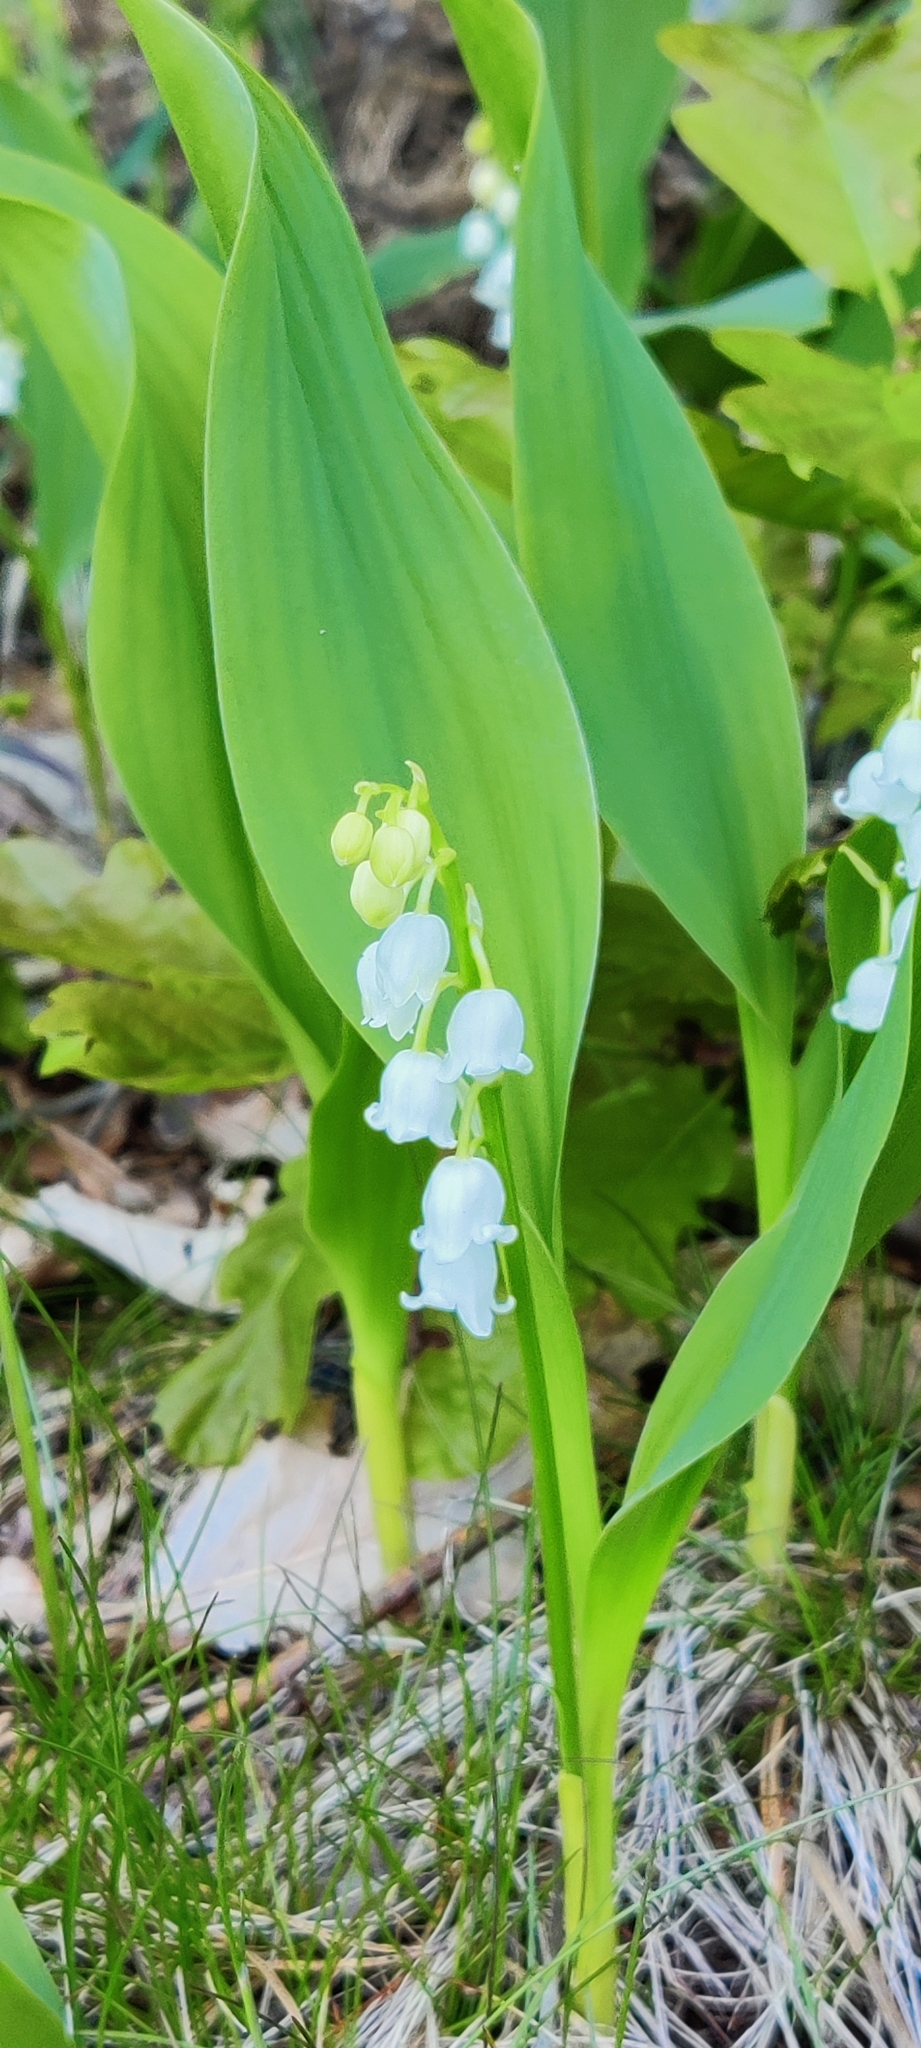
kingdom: Plantae
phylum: Tracheophyta
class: Liliopsida
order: Asparagales
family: Asparagaceae
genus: Convallaria
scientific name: Convallaria majalis
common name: Lily-of-the-valley
